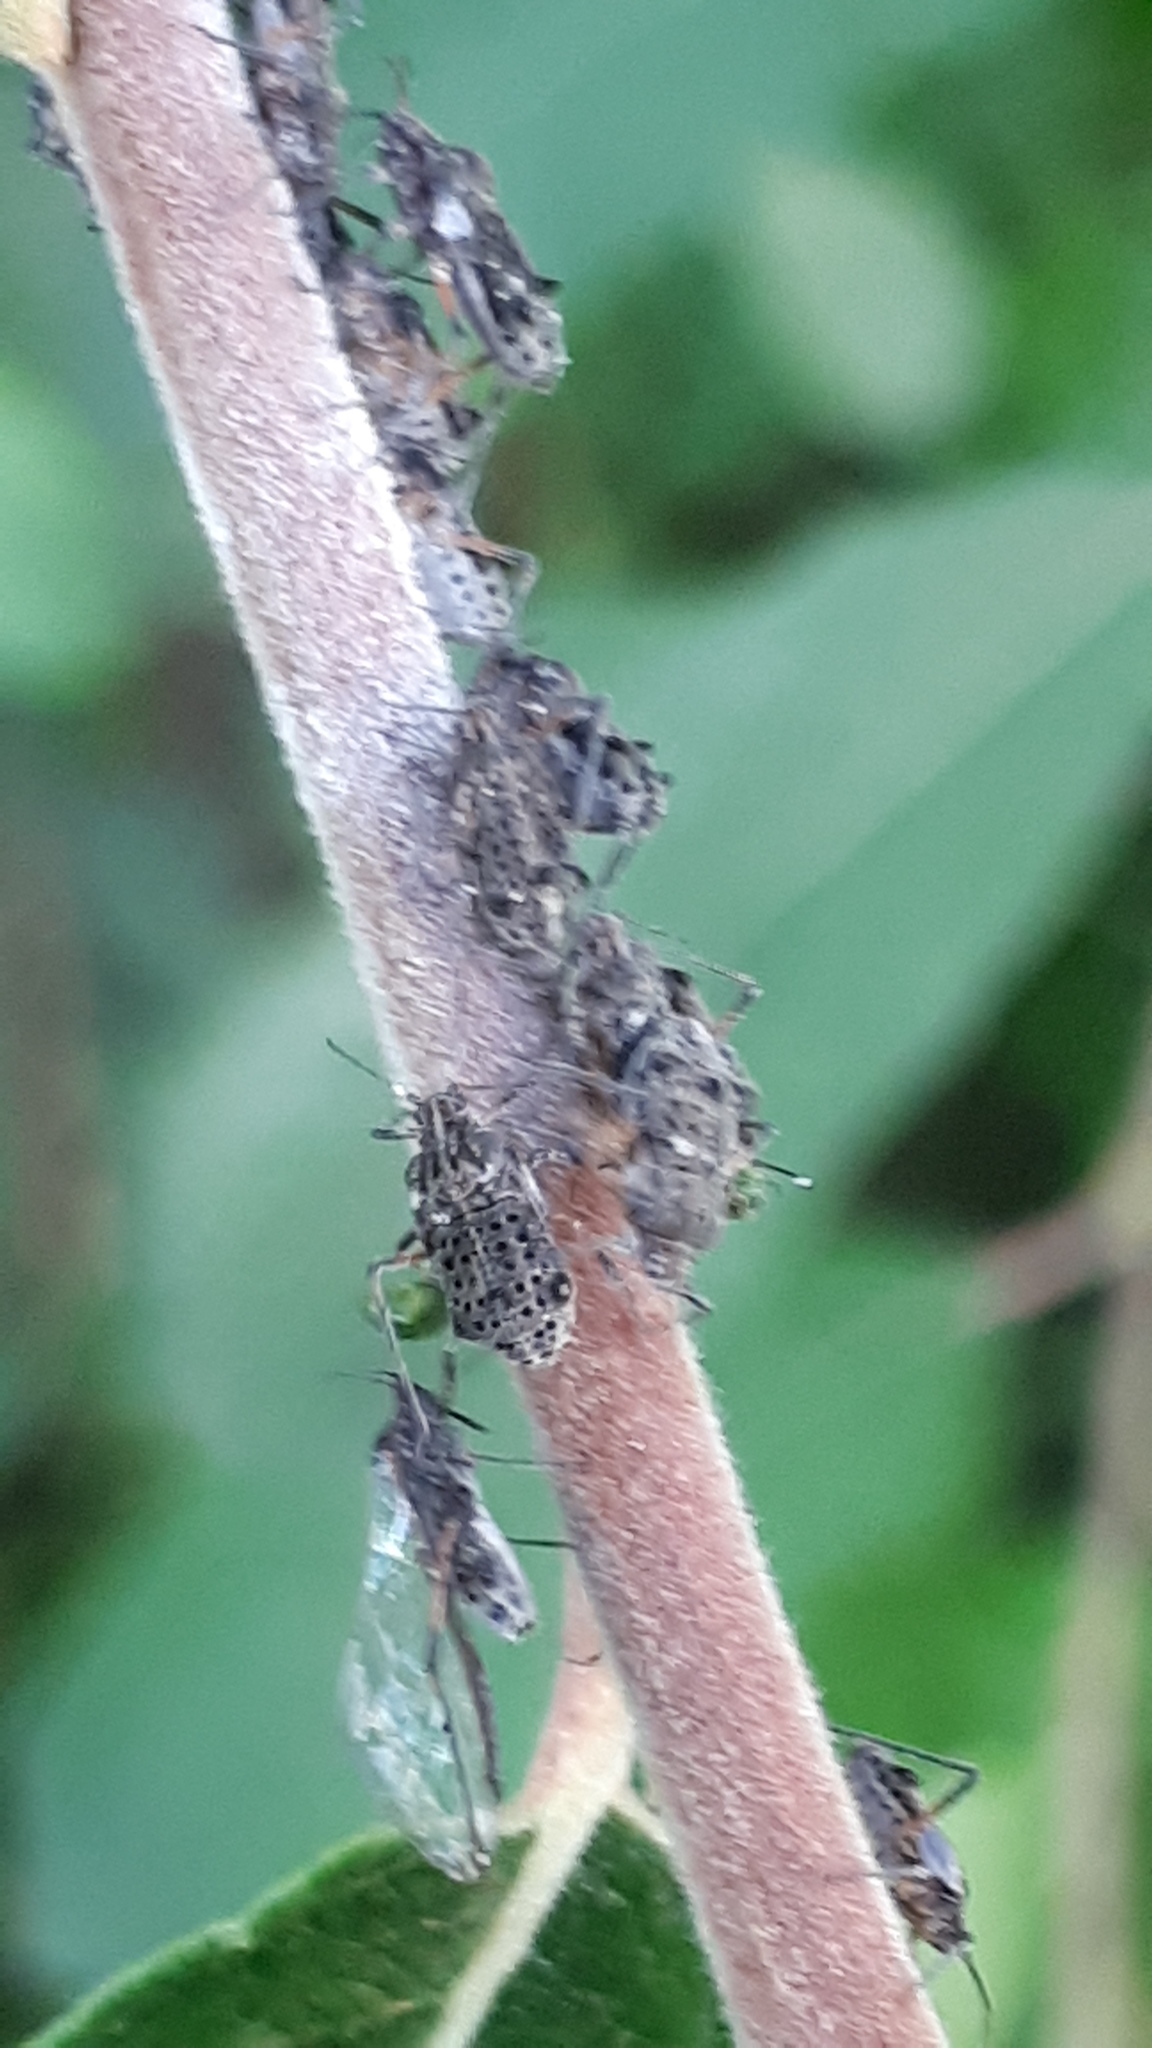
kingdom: Animalia
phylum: Arthropoda
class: Insecta
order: Hemiptera
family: Aphididae
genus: Tuberolachnus
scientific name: Tuberolachnus salignus
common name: Giant willow aphid
